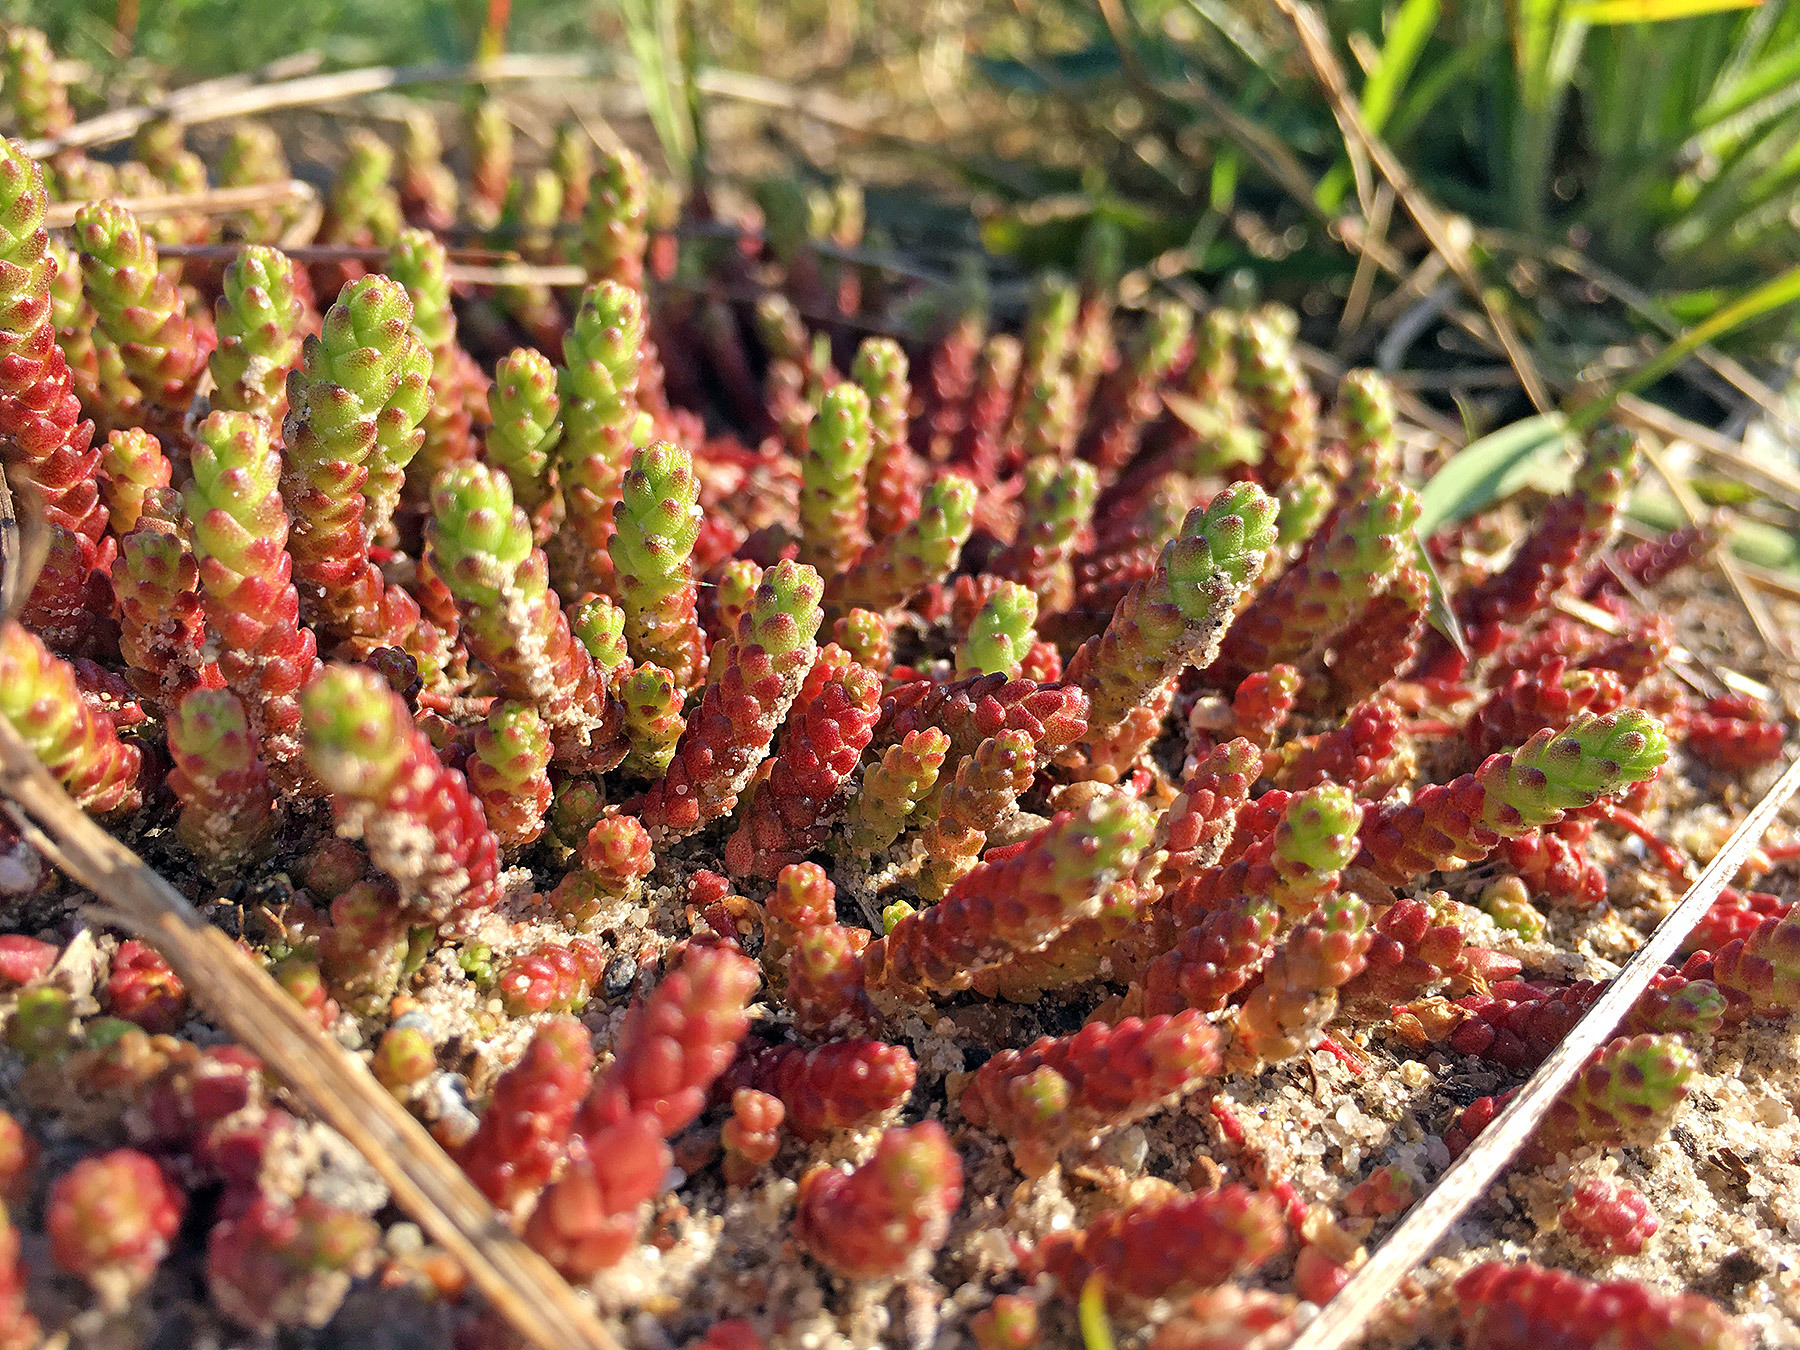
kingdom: Plantae
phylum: Tracheophyta
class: Magnoliopsida
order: Saxifragales
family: Crassulaceae
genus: Sedum
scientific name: Sedum acre
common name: Biting stonecrop
